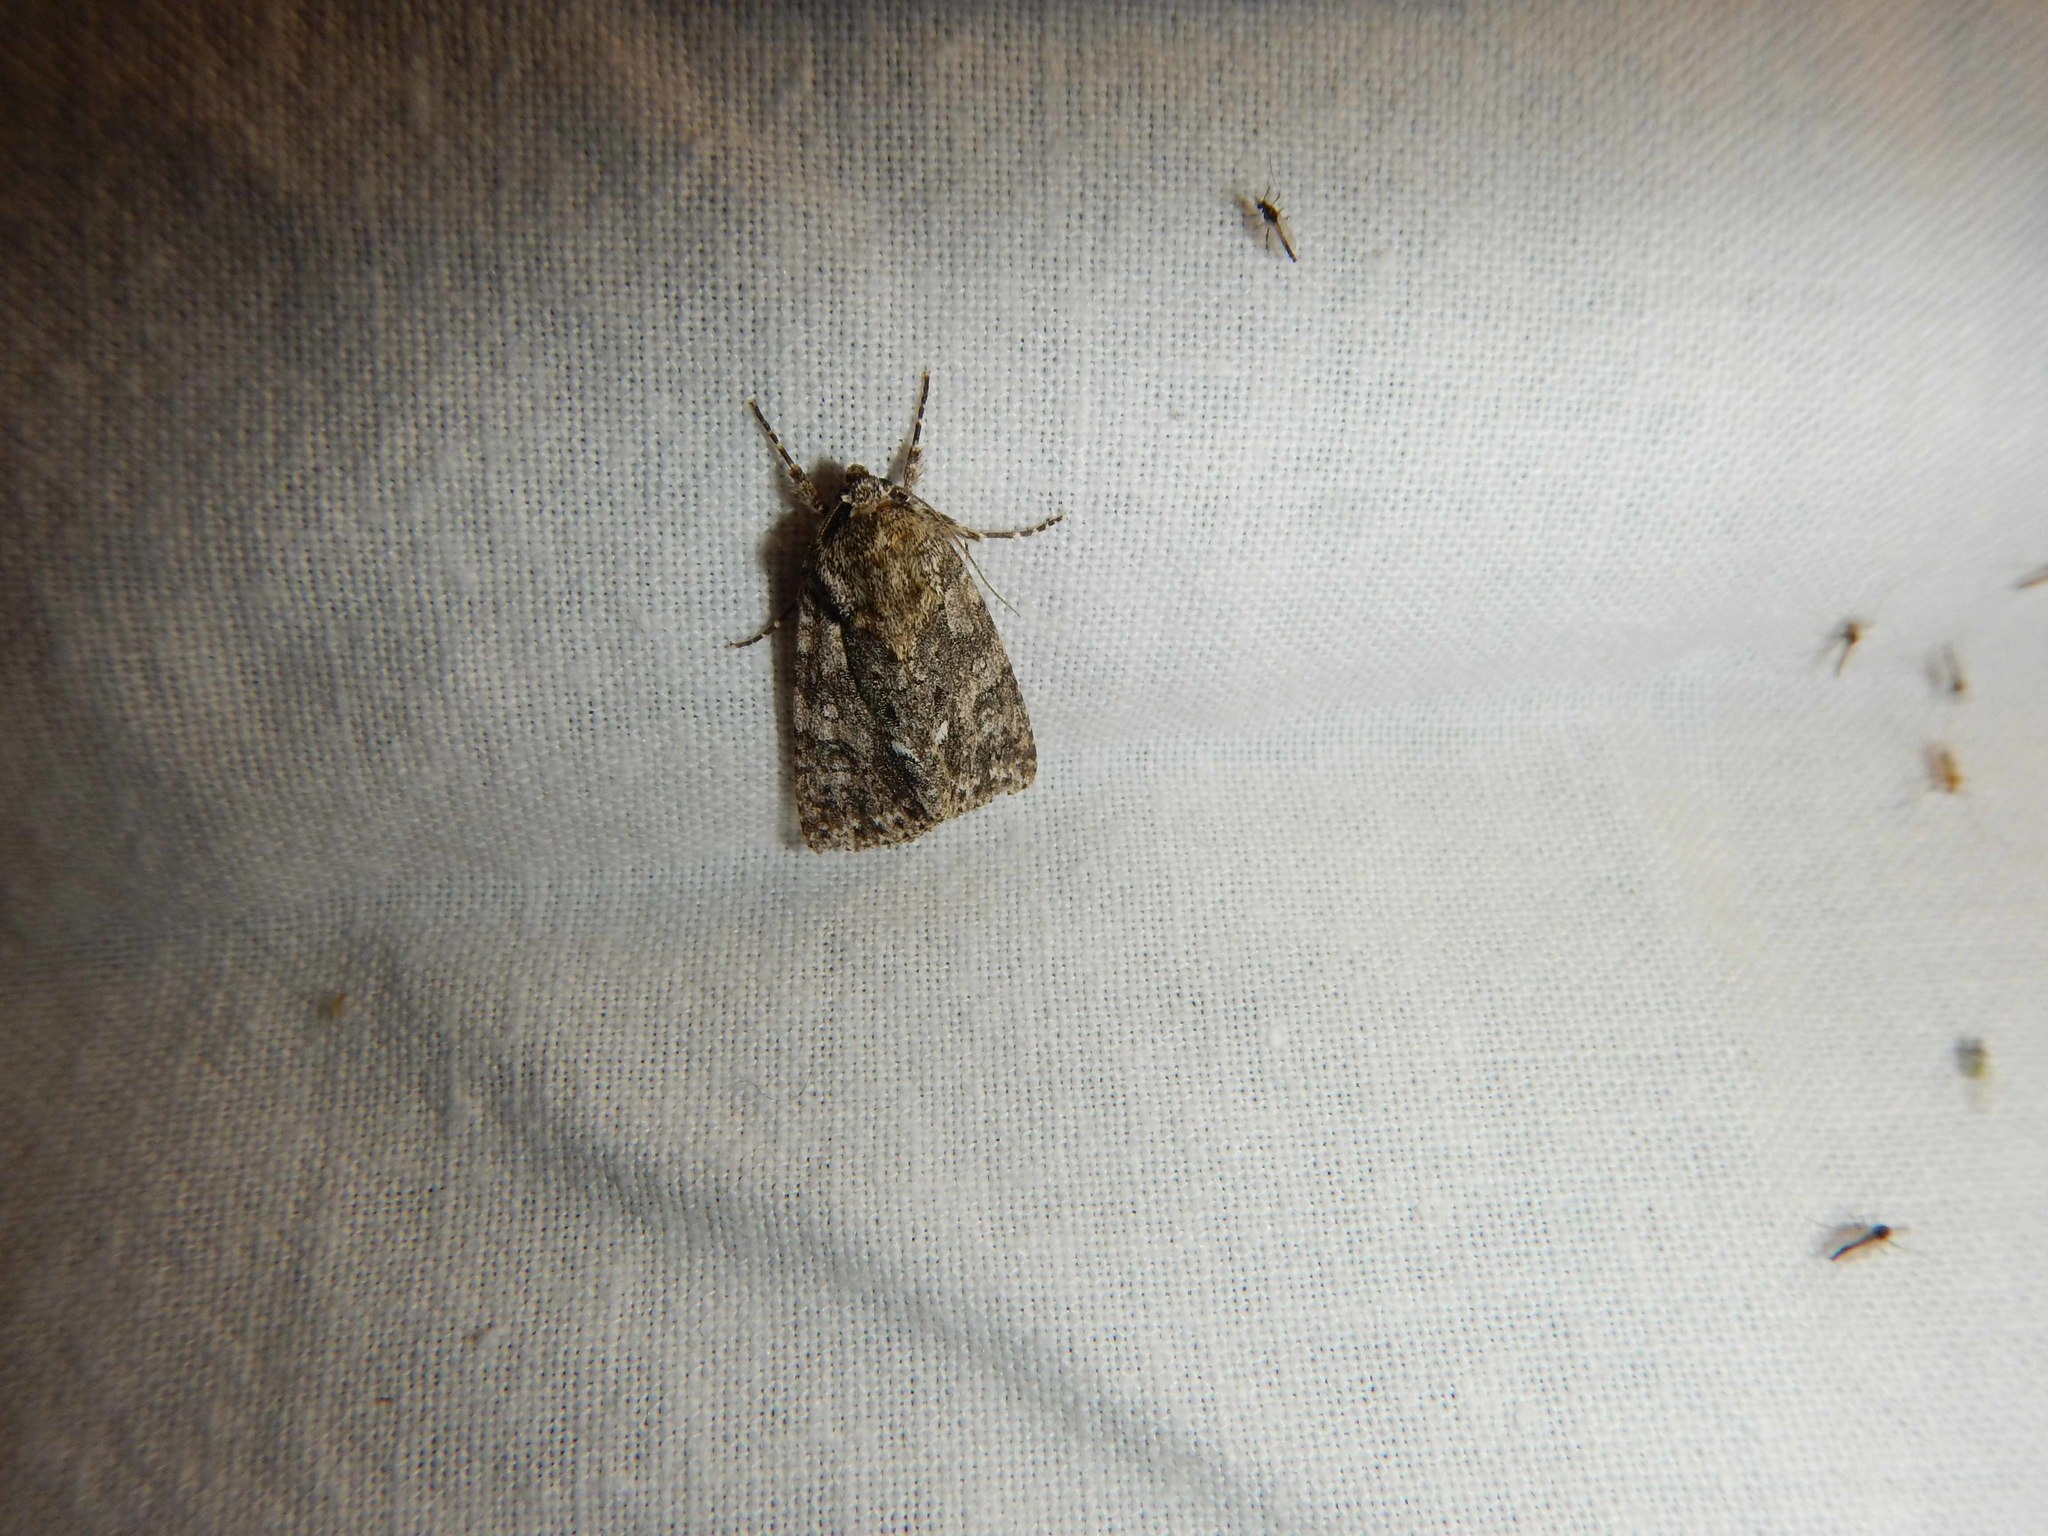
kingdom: Animalia
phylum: Arthropoda
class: Insecta
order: Lepidoptera
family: Noctuidae
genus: Acronicta
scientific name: Acronicta rumicis
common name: Knot grass
